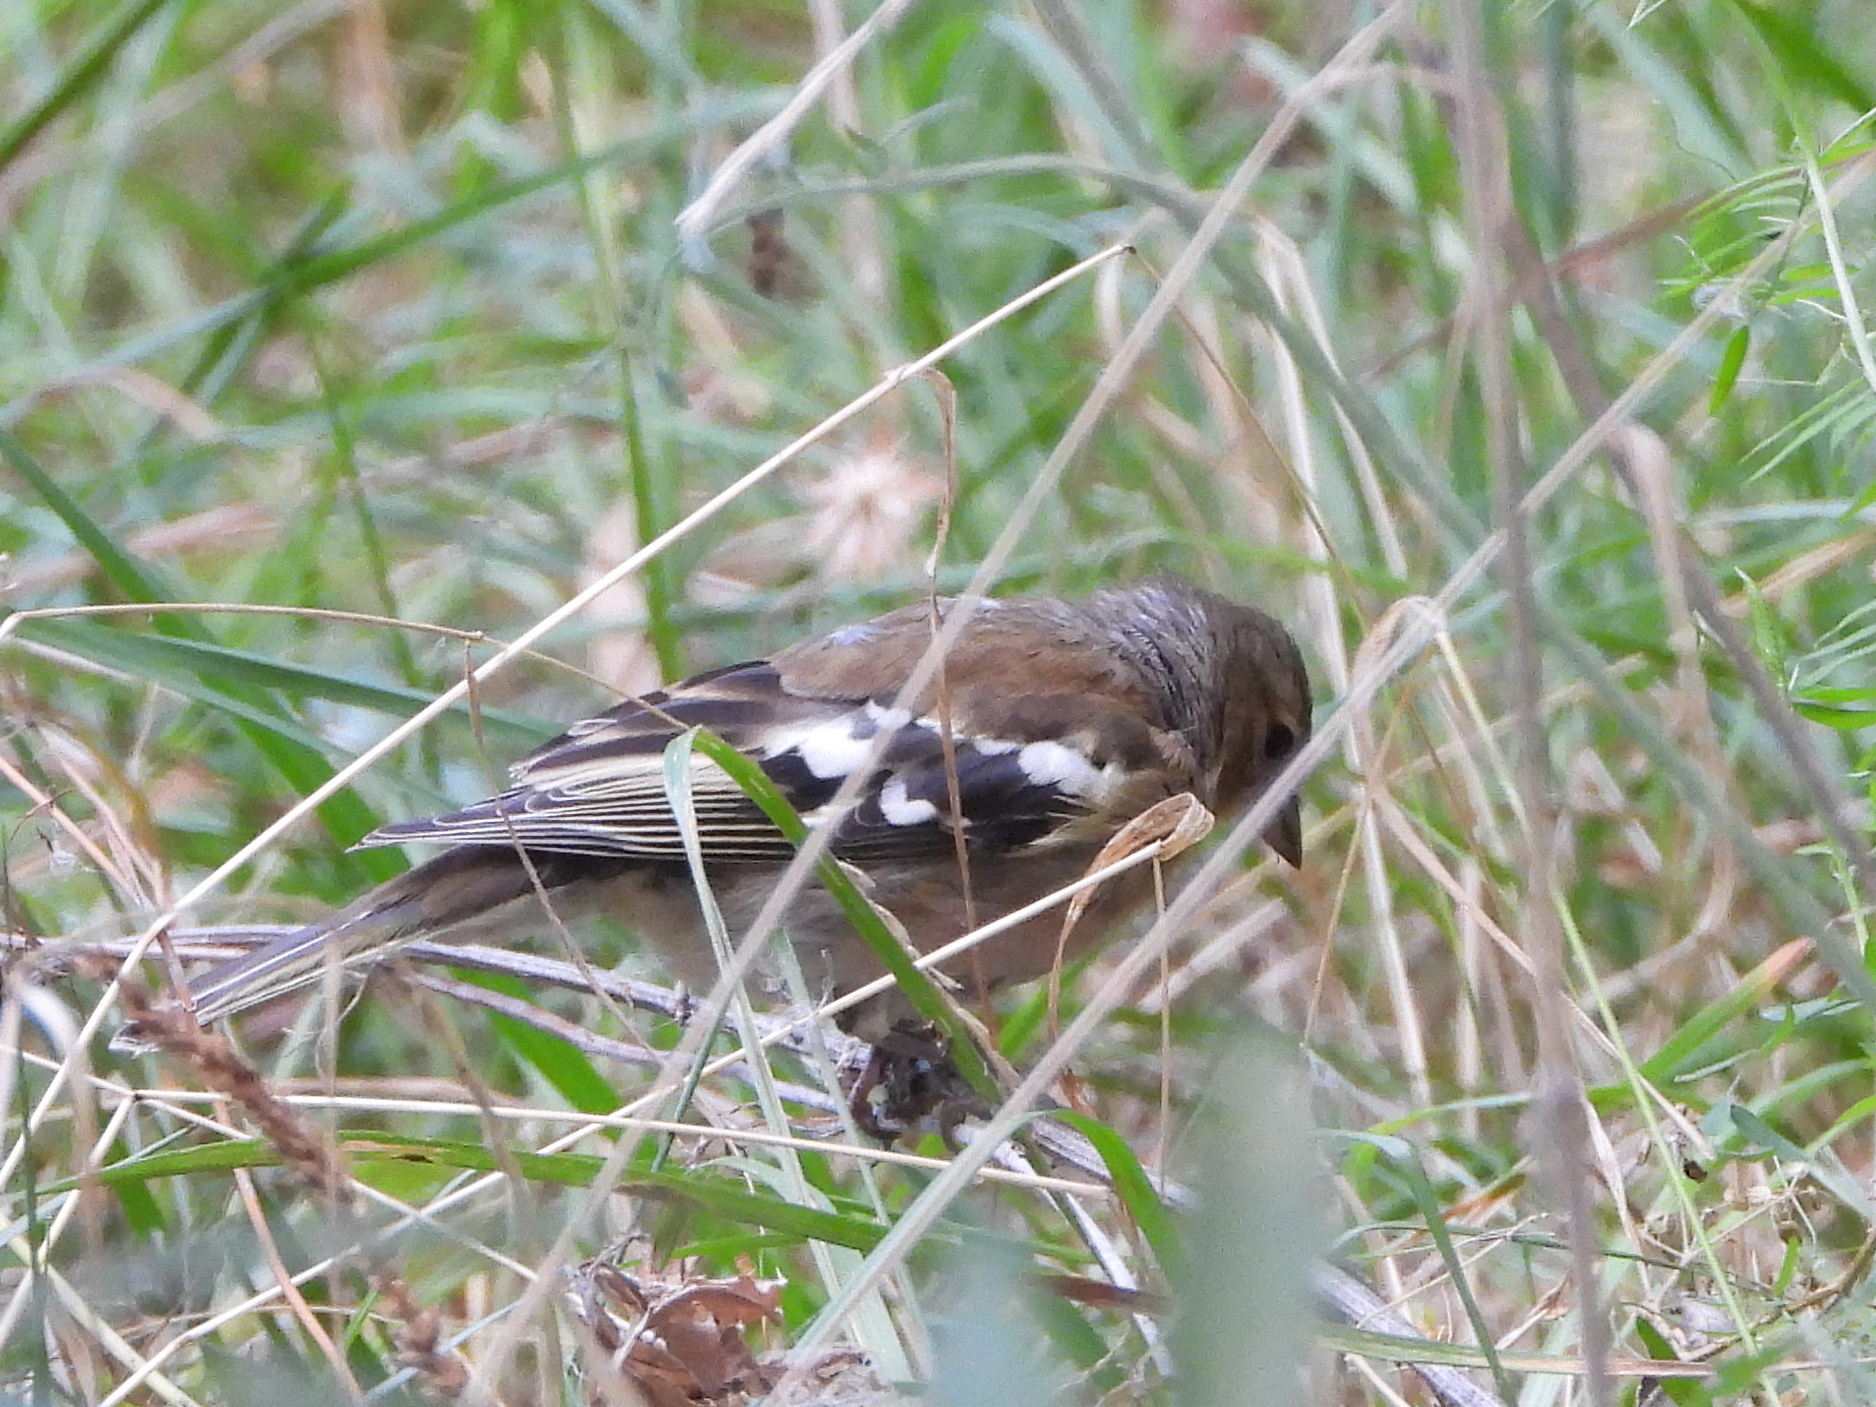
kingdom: Animalia
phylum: Chordata
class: Aves
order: Passeriformes
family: Fringillidae
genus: Fringilla
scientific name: Fringilla coelebs
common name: Common chaffinch
